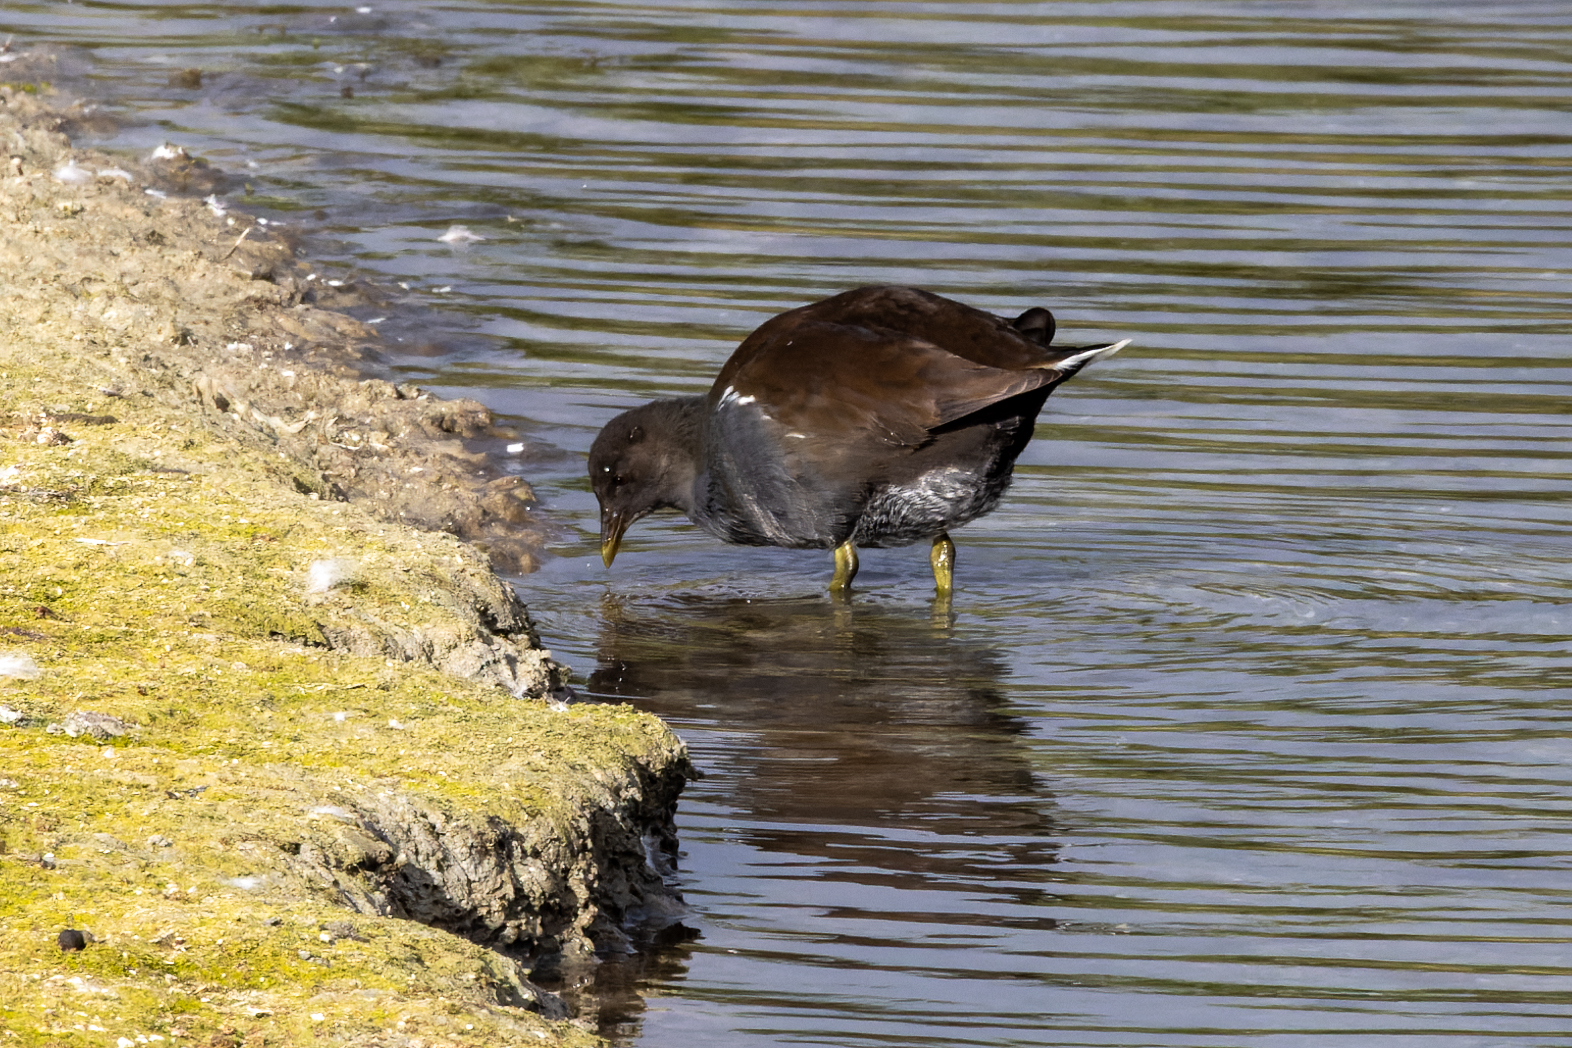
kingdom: Animalia
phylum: Chordata
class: Aves
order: Gruiformes
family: Rallidae
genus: Gallinula
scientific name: Gallinula chloropus
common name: Common moorhen
